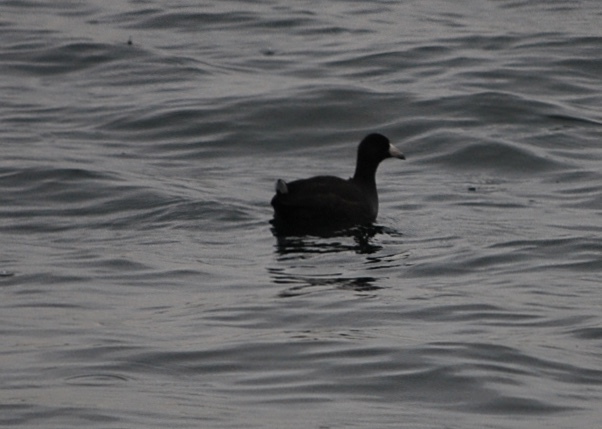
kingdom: Animalia
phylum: Chordata
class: Aves
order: Gruiformes
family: Rallidae
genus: Fulica
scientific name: Fulica americana
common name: American coot
